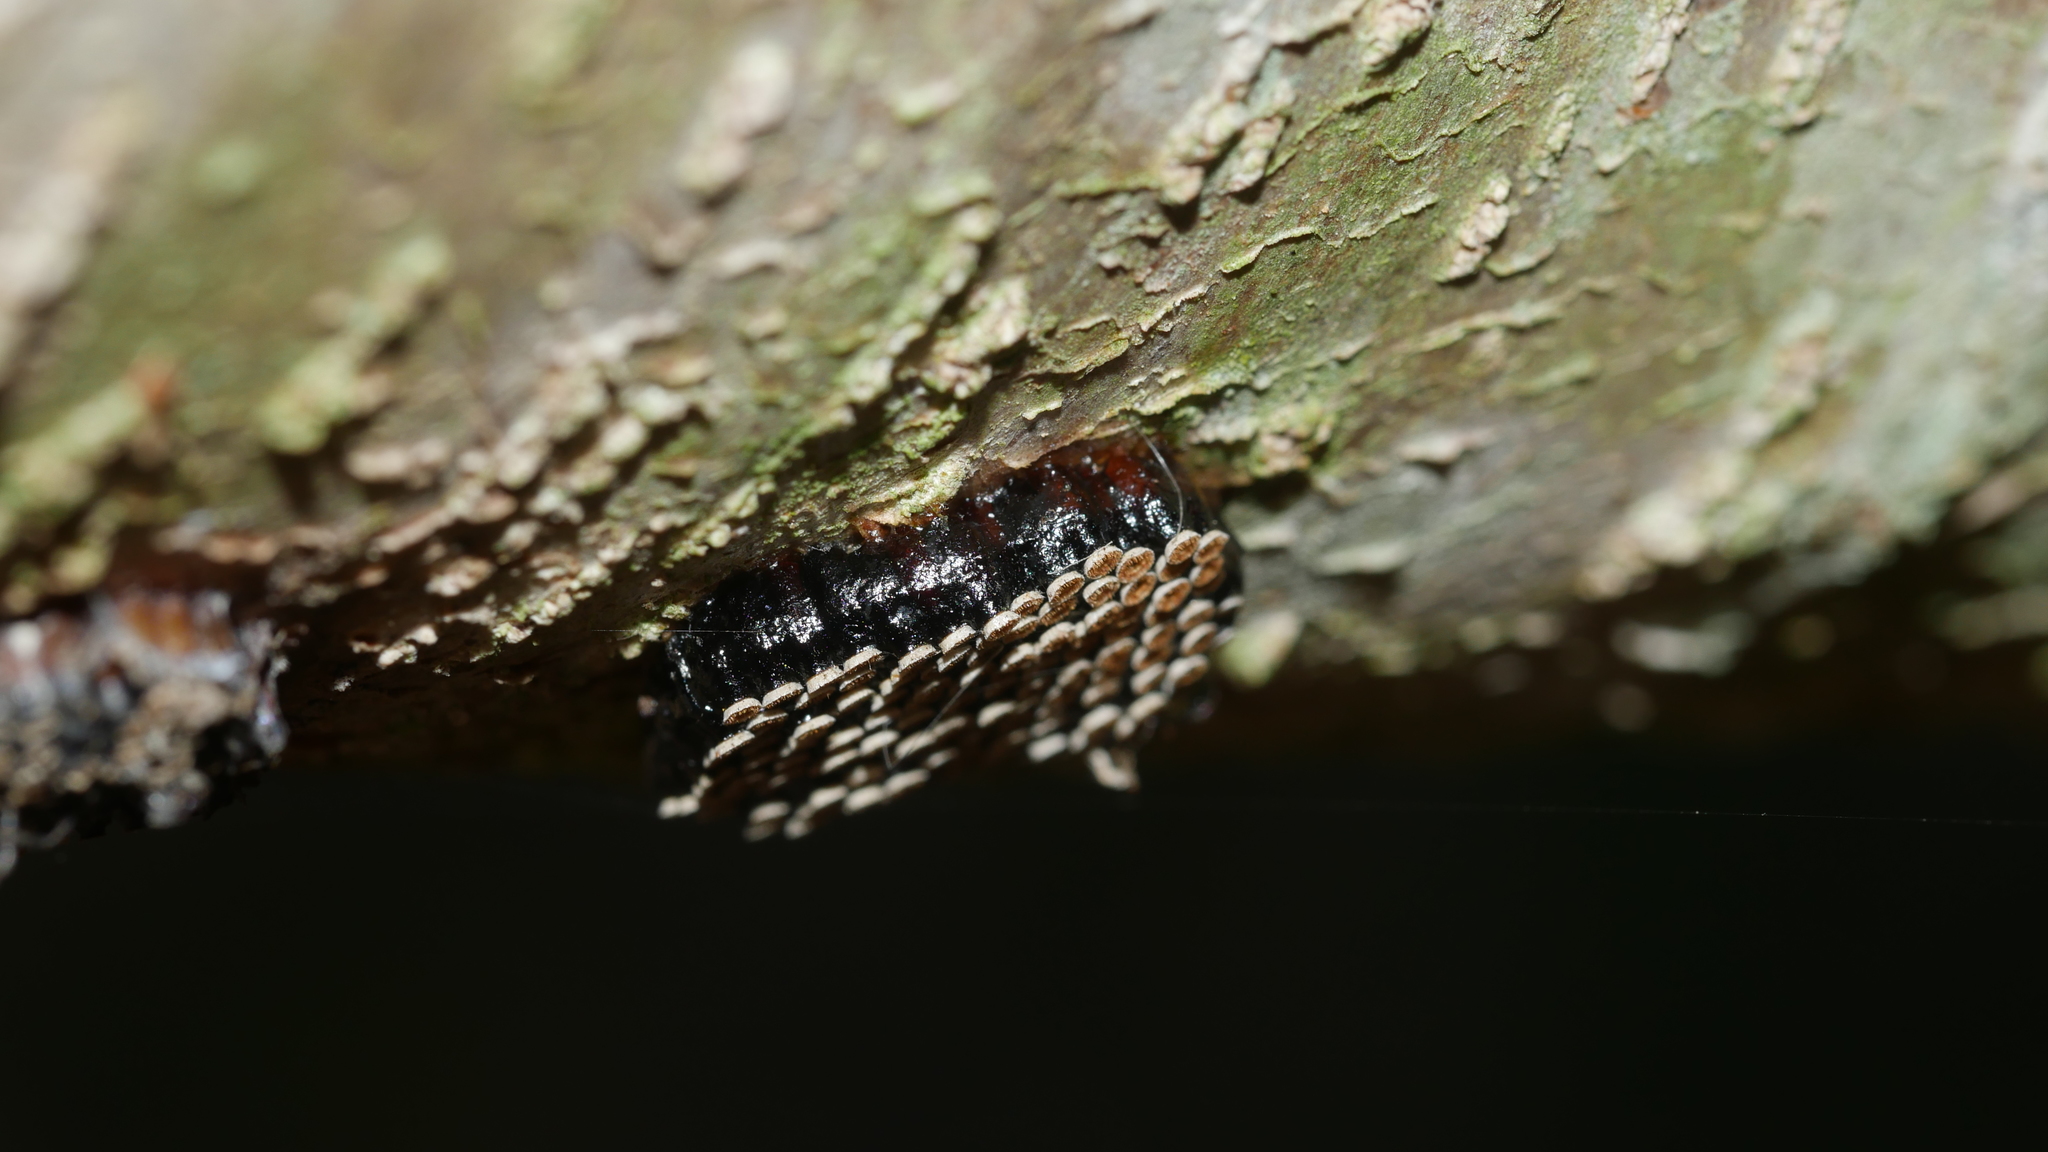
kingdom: Animalia
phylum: Arthropoda
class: Insecta
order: Hemiptera
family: Reduviidae
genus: Arilus
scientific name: Arilus cristatus
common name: North american wheel bug
